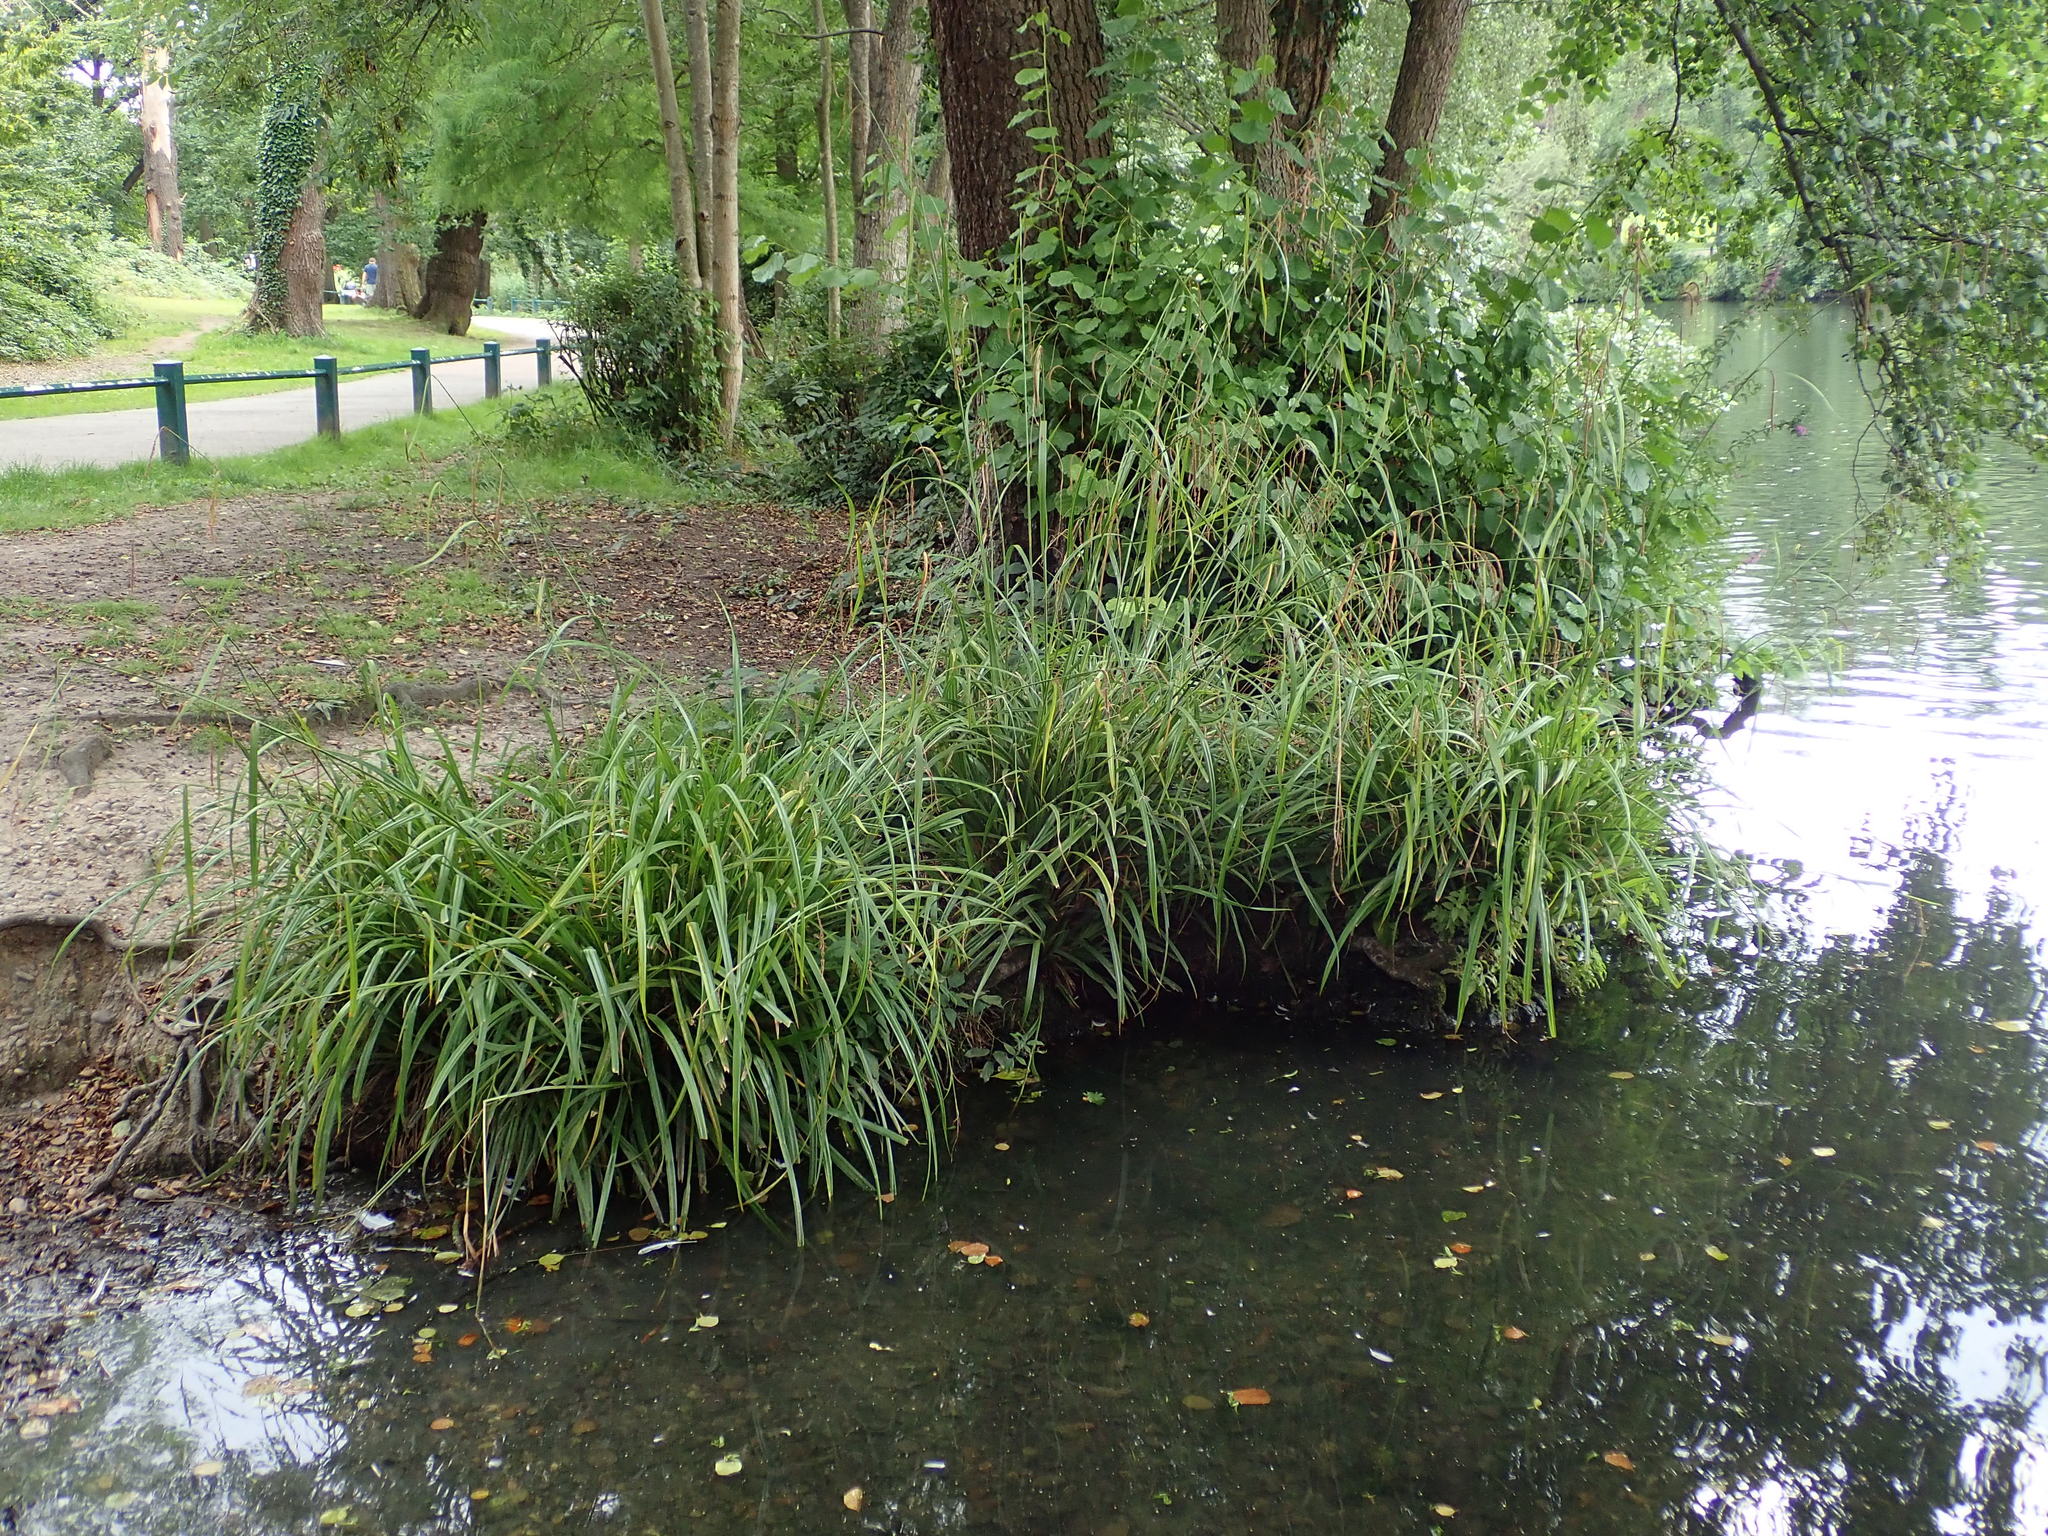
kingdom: Plantae
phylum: Tracheophyta
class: Liliopsida
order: Poales
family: Cyperaceae
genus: Carex
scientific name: Carex pendula
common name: Pendulous sedge
